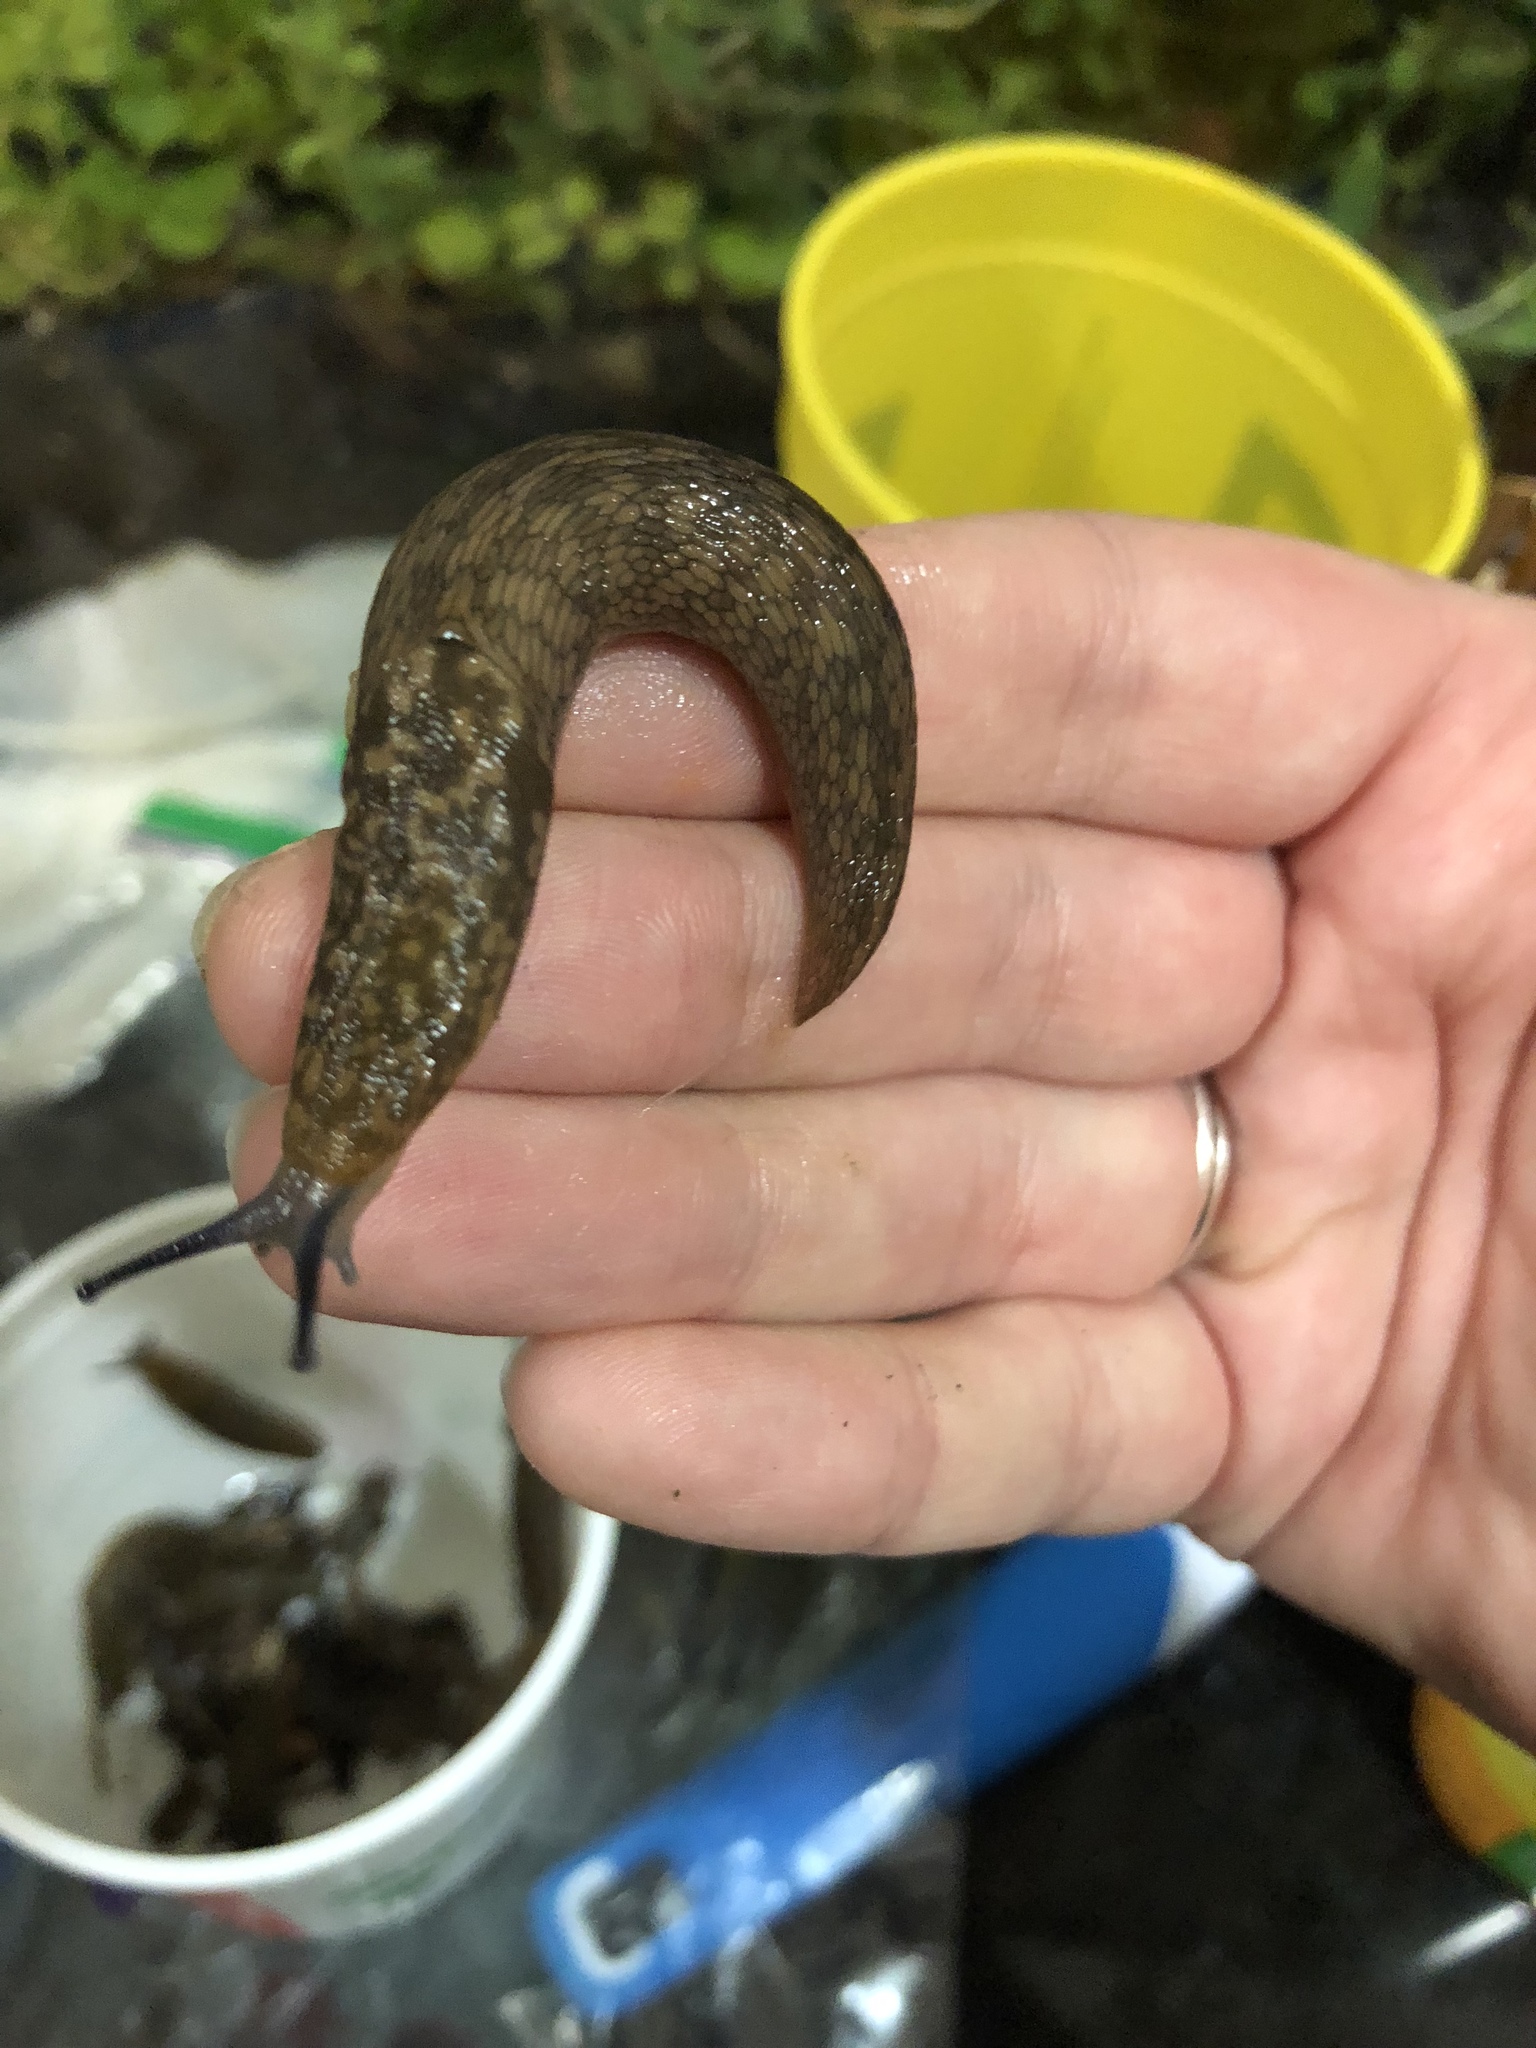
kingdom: Animalia
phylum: Mollusca
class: Gastropoda
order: Stylommatophora
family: Limacidae
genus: Limacus
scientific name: Limacus flavus
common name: Yellow gardenslug
